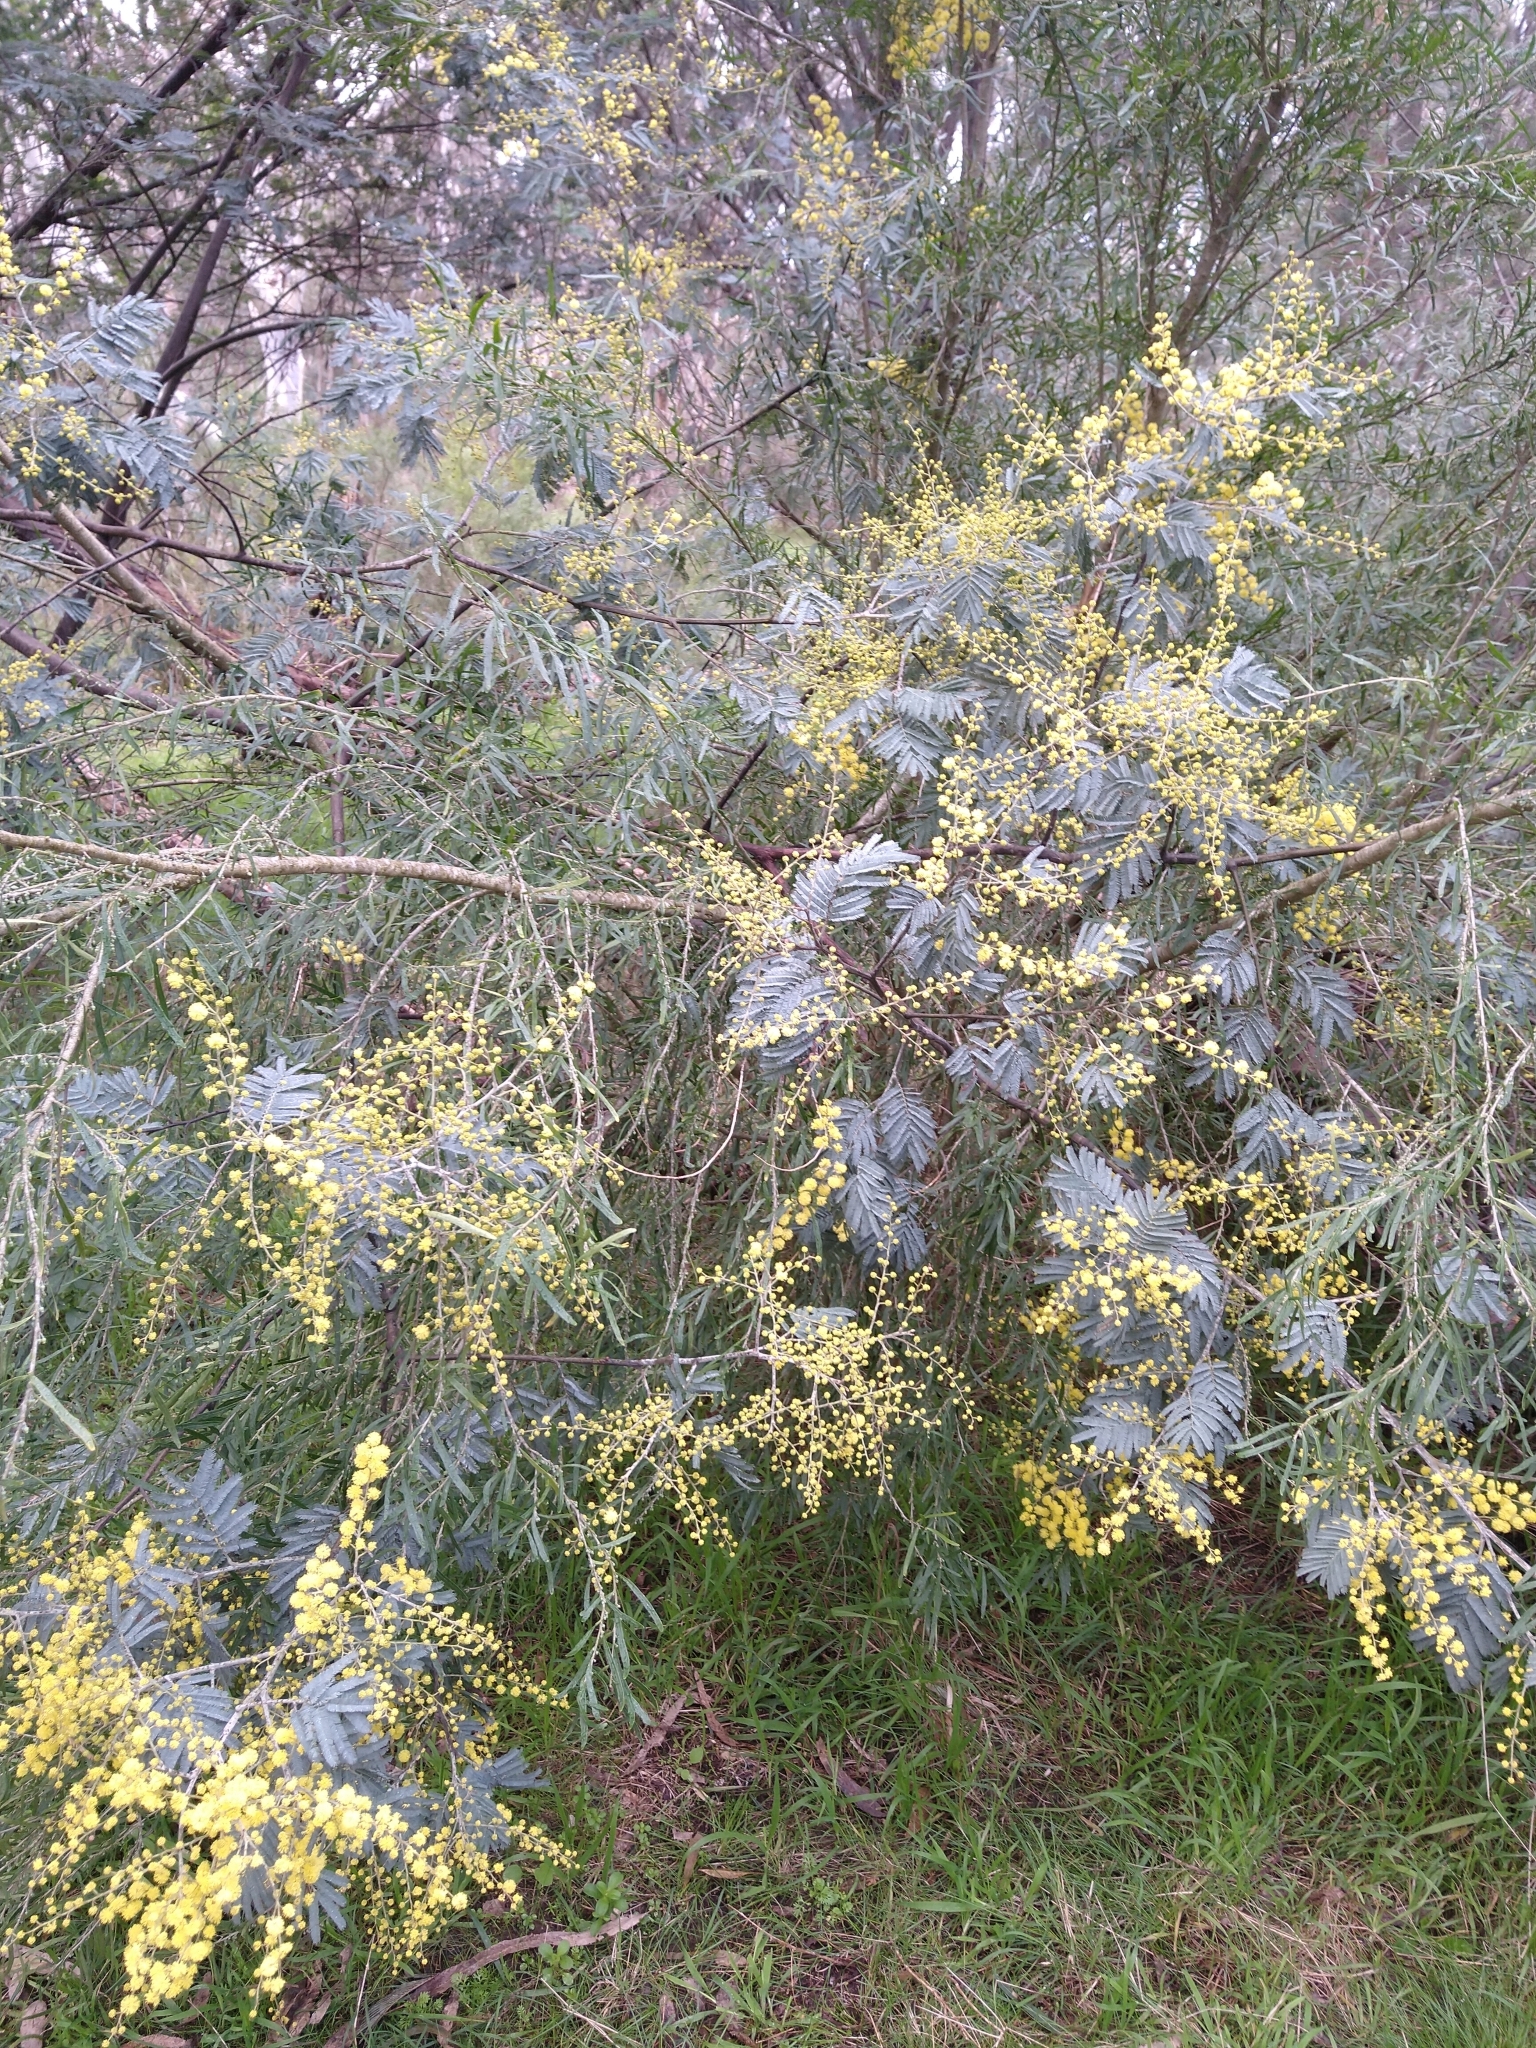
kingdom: Plantae
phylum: Tracheophyta
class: Magnoliopsida
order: Fabales
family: Fabaceae
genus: Acacia
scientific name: Acacia dealbata
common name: Silver wattle
